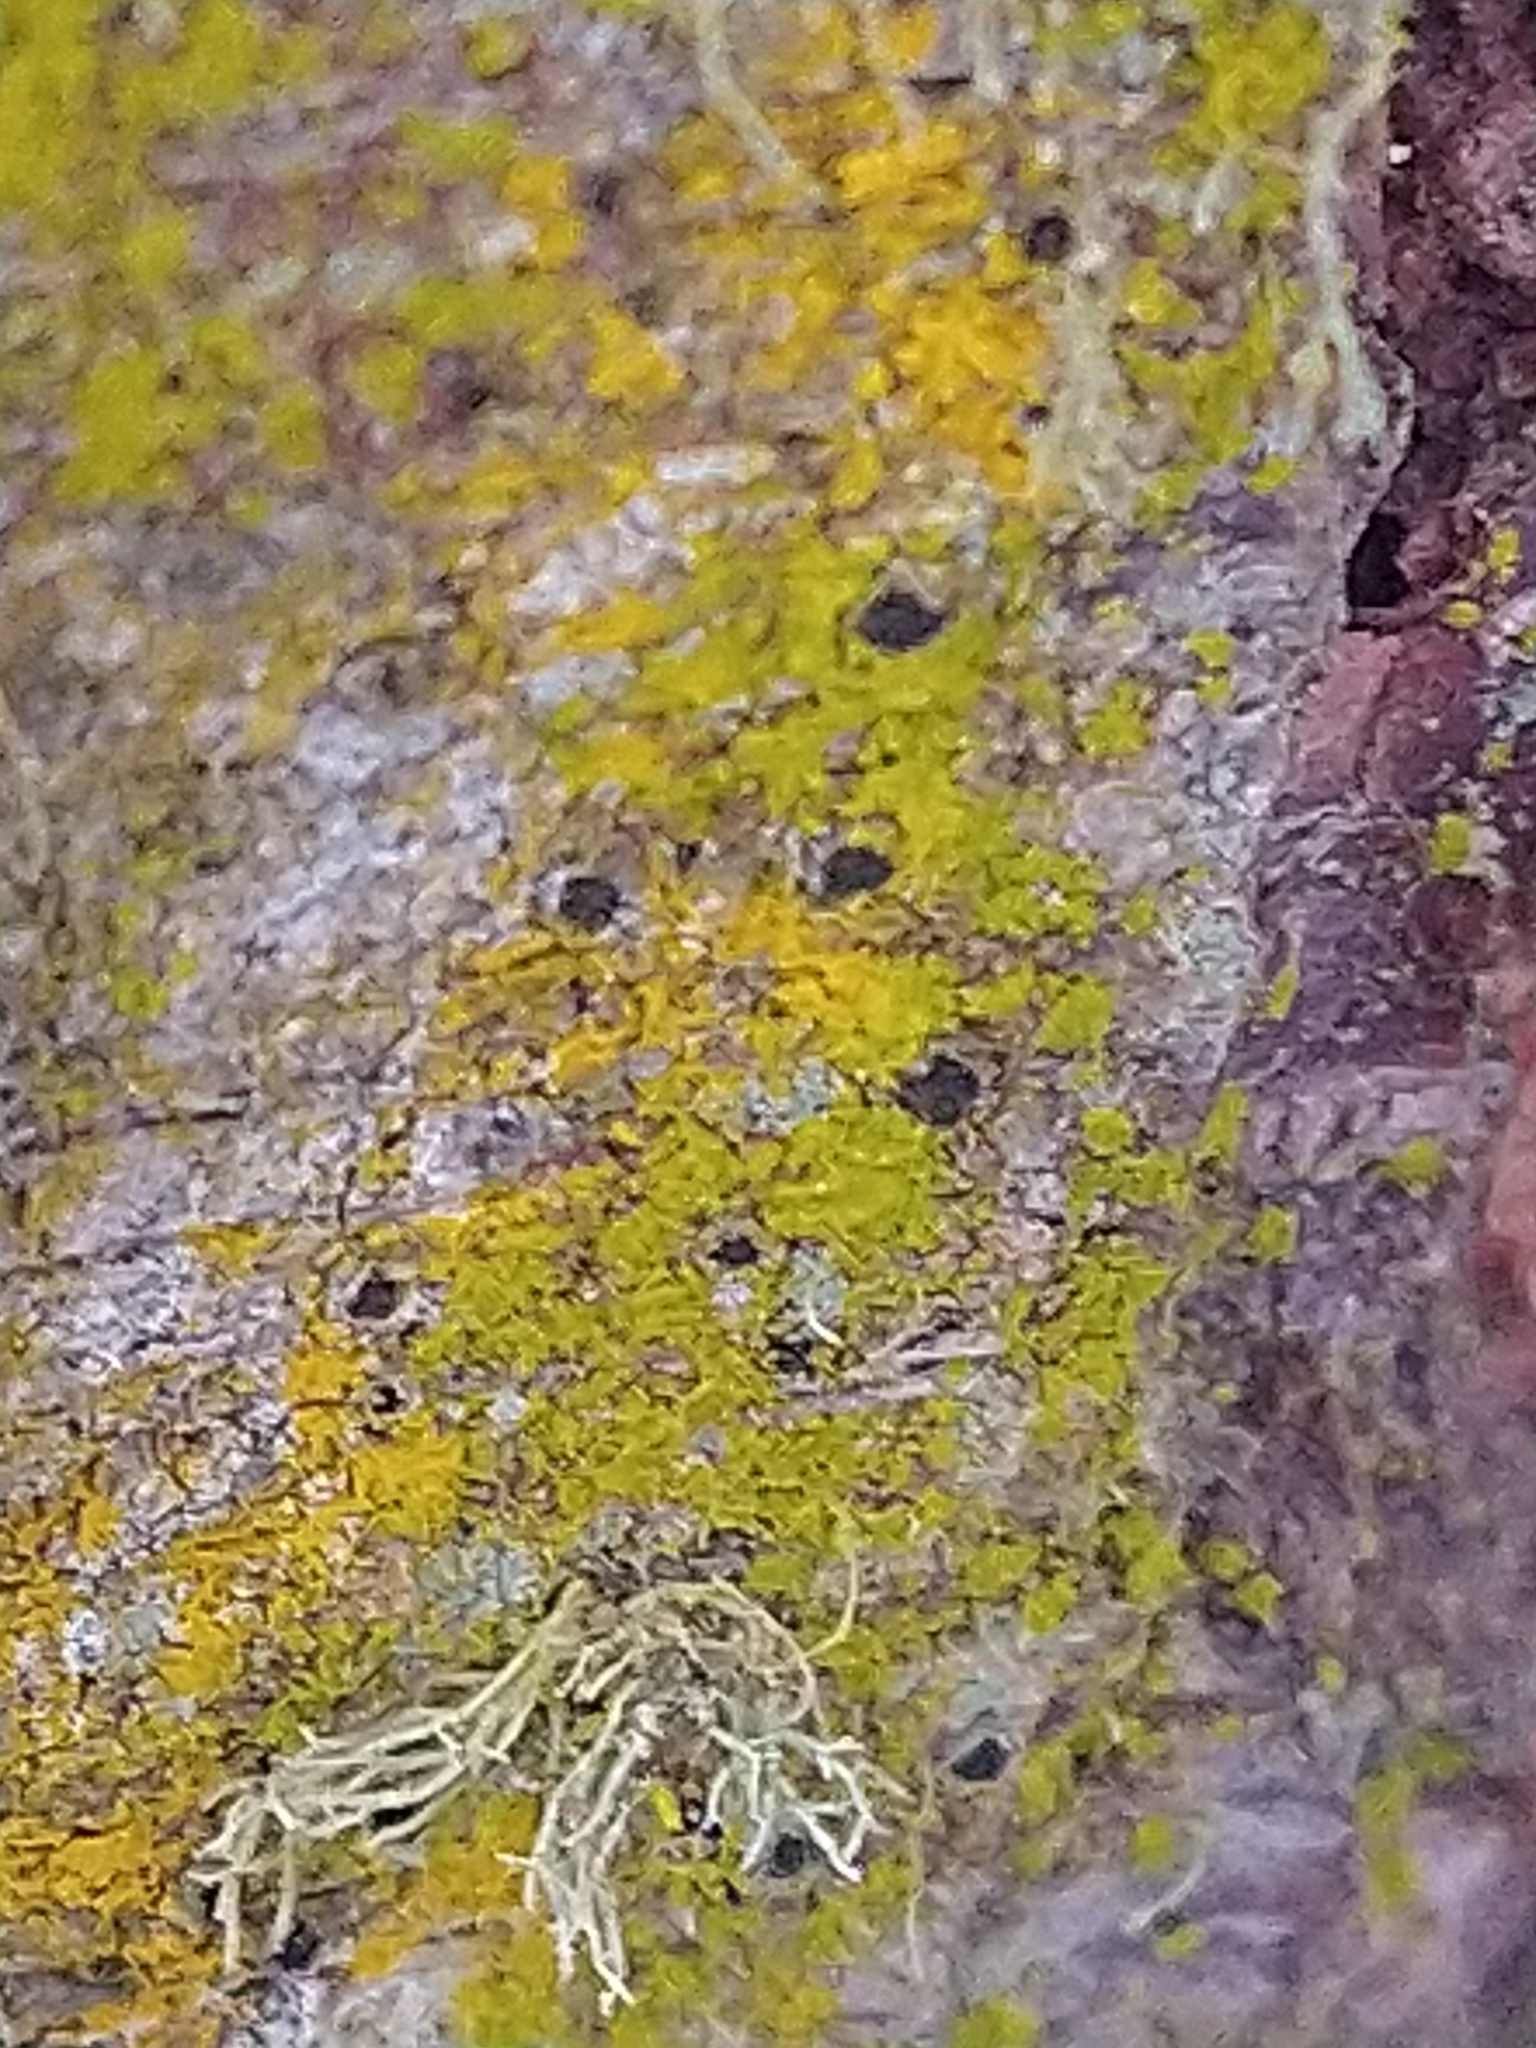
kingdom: Fungi
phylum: Ascomycota
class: Arthoniomycetes
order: Arthoniales
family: Chrysotrichaceae
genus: Chrysothrix
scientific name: Chrysothrix candelaris
